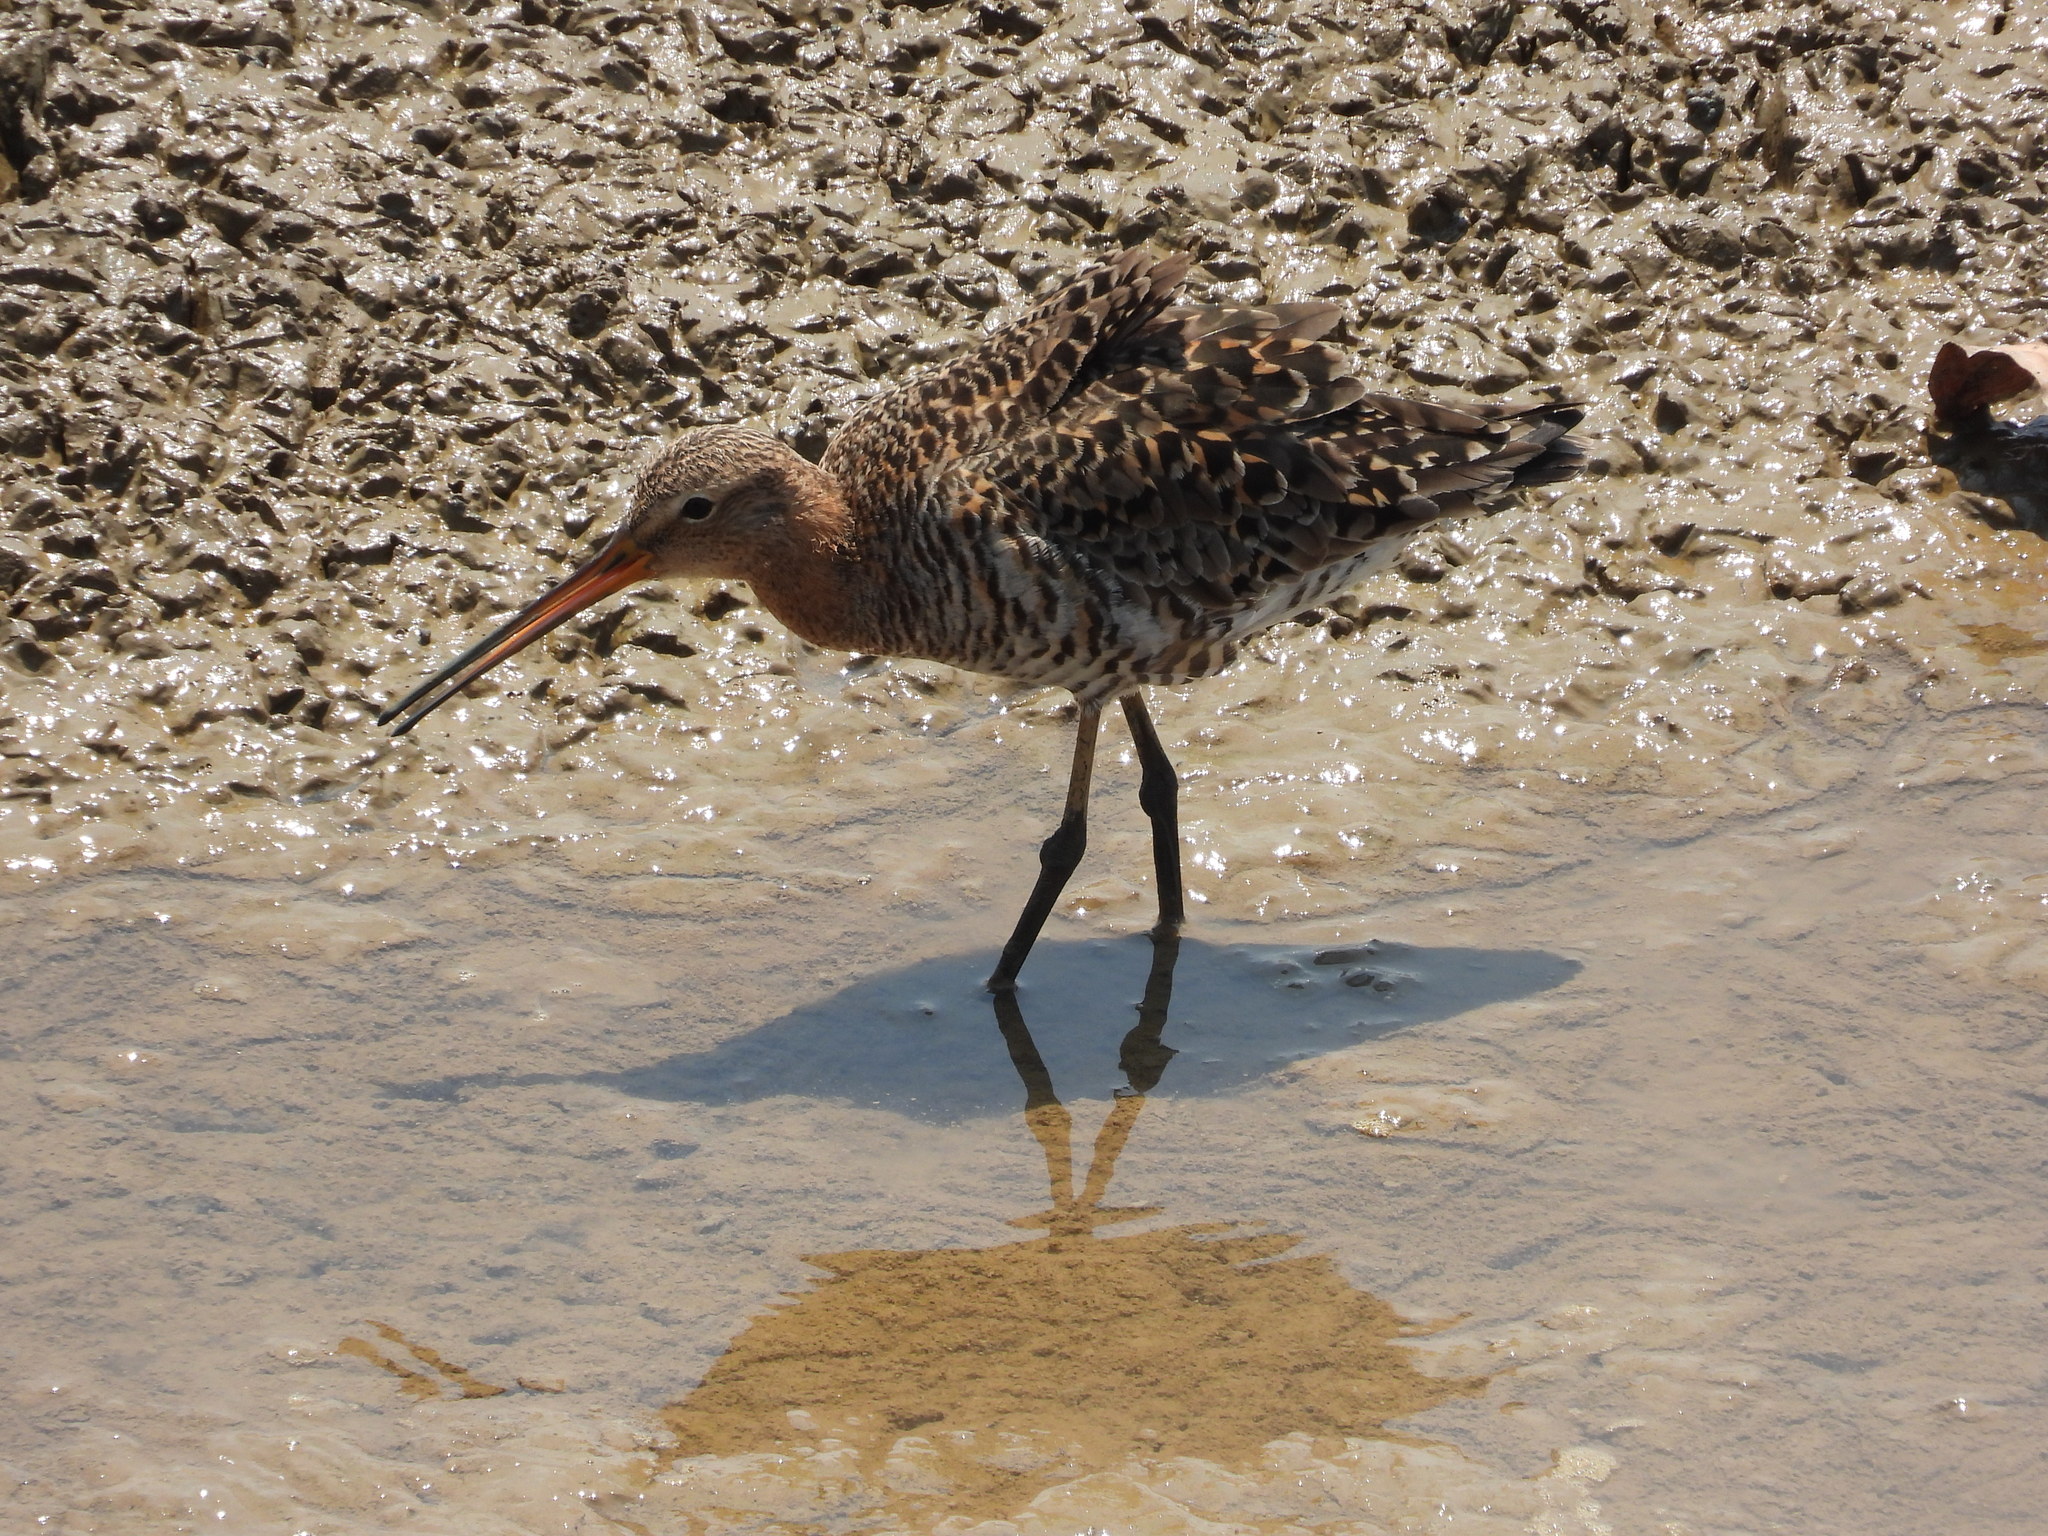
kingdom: Animalia
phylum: Chordata
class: Aves
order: Charadriiformes
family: Scolopacidae
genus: Limosa
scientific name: Limosa limosa
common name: Black-tailed godwit
